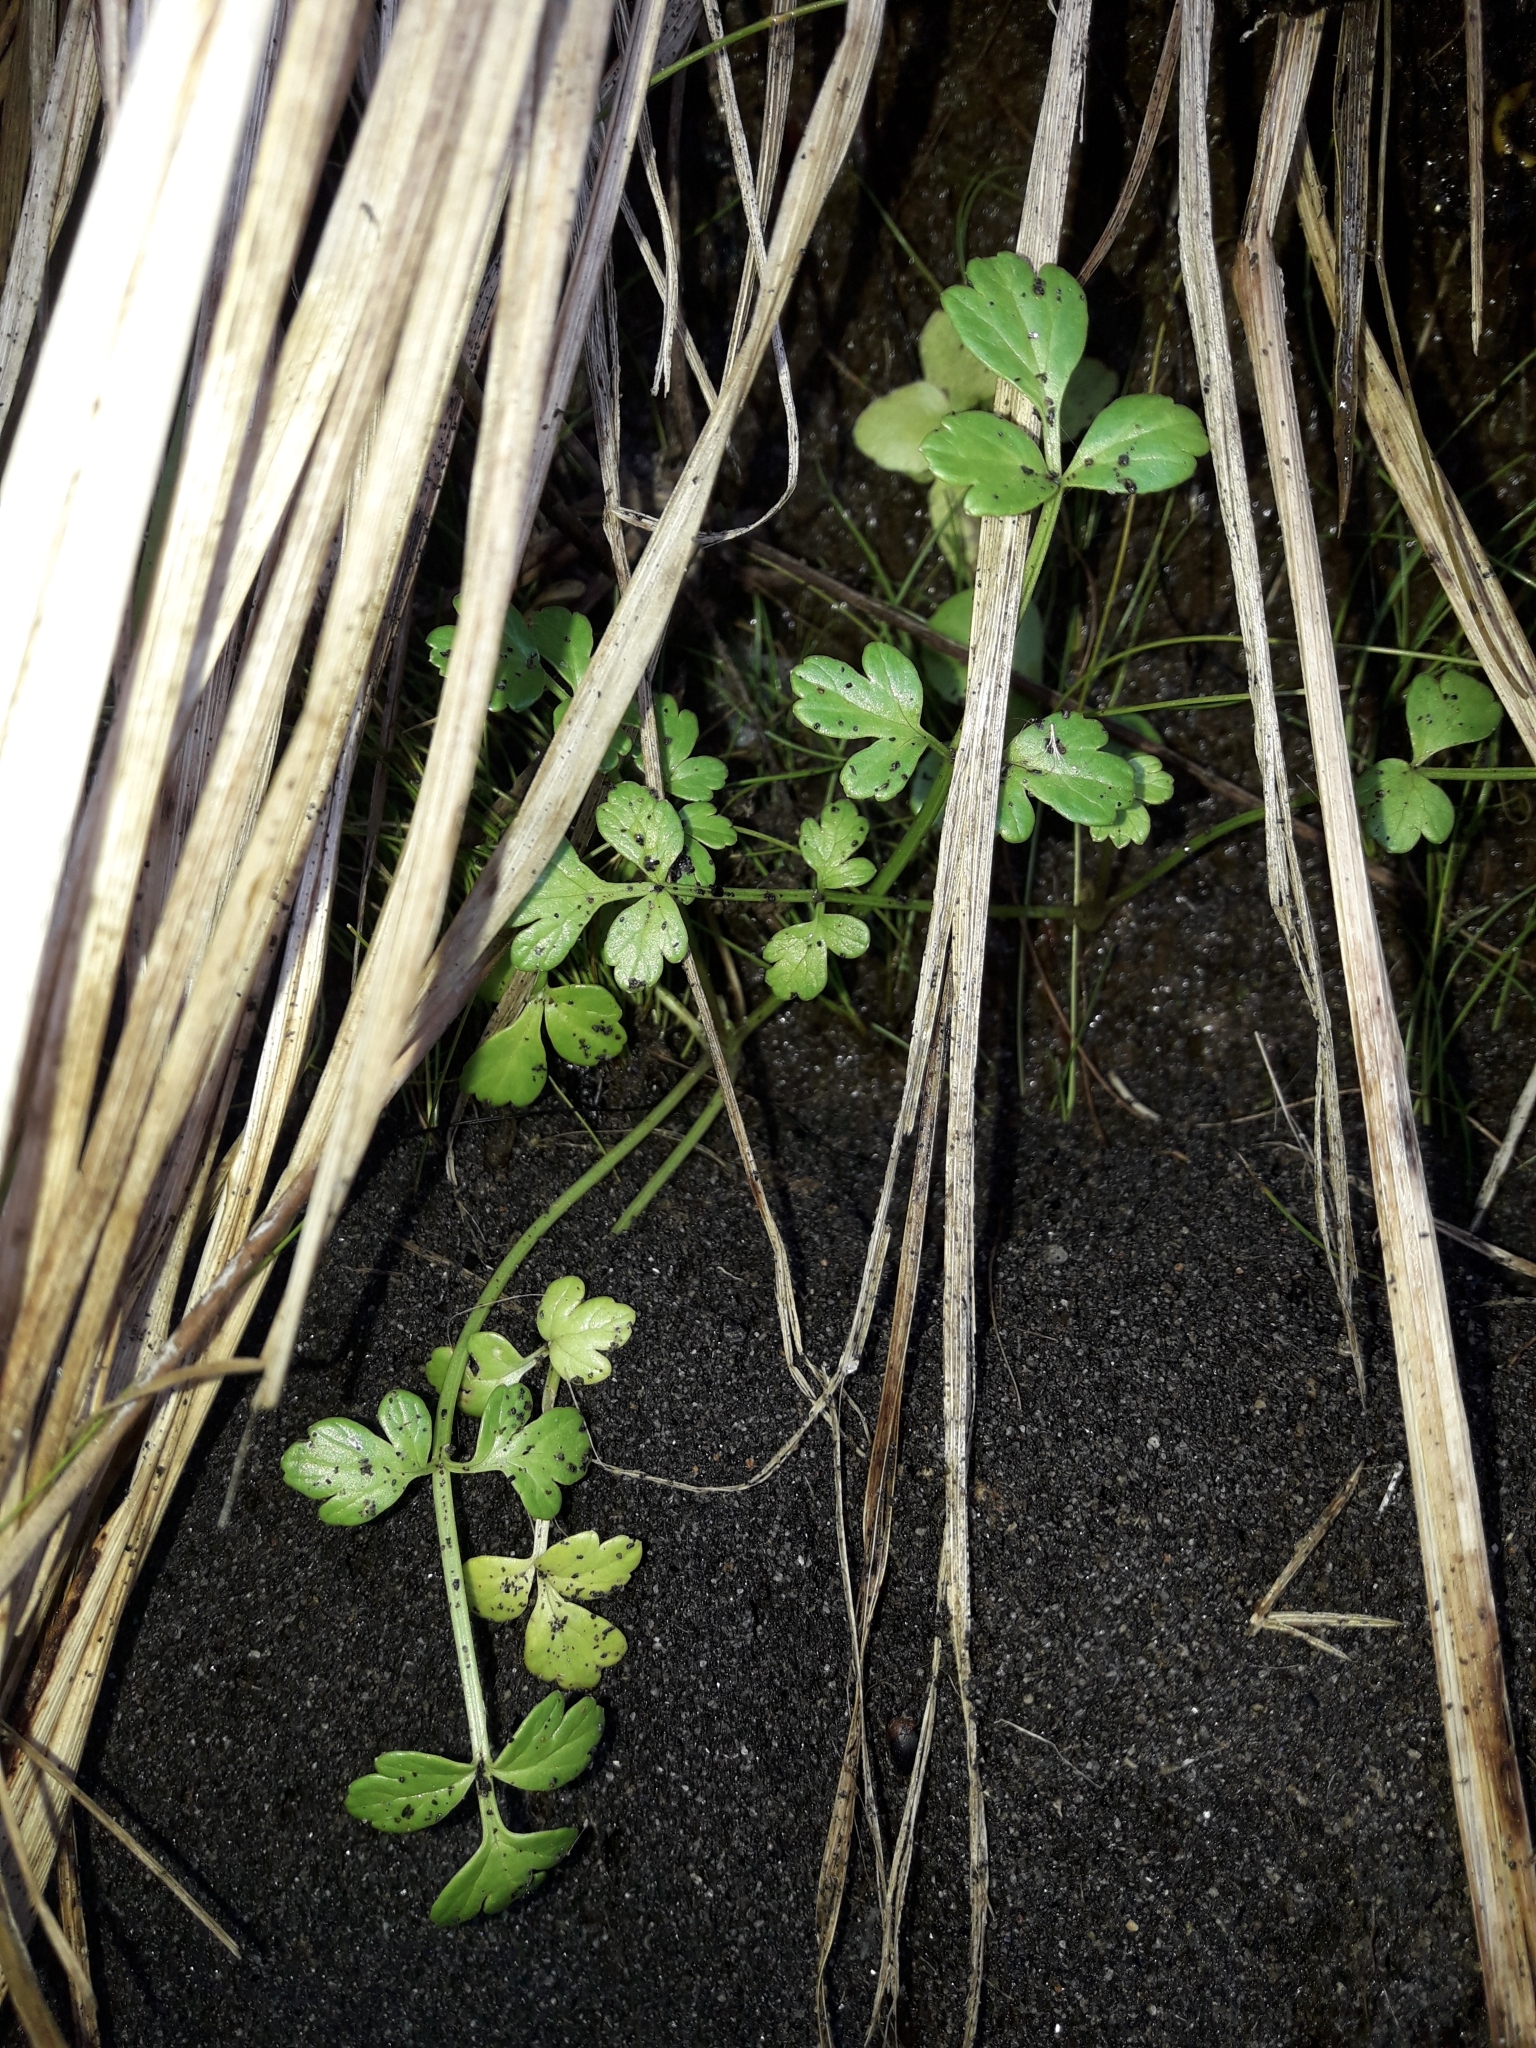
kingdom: Plantae
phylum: Tracheophyta
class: Magnoliopsida
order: Apiales
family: Apiaceae
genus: Apium
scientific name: Apium prostratum
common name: Prostrate marshwort
